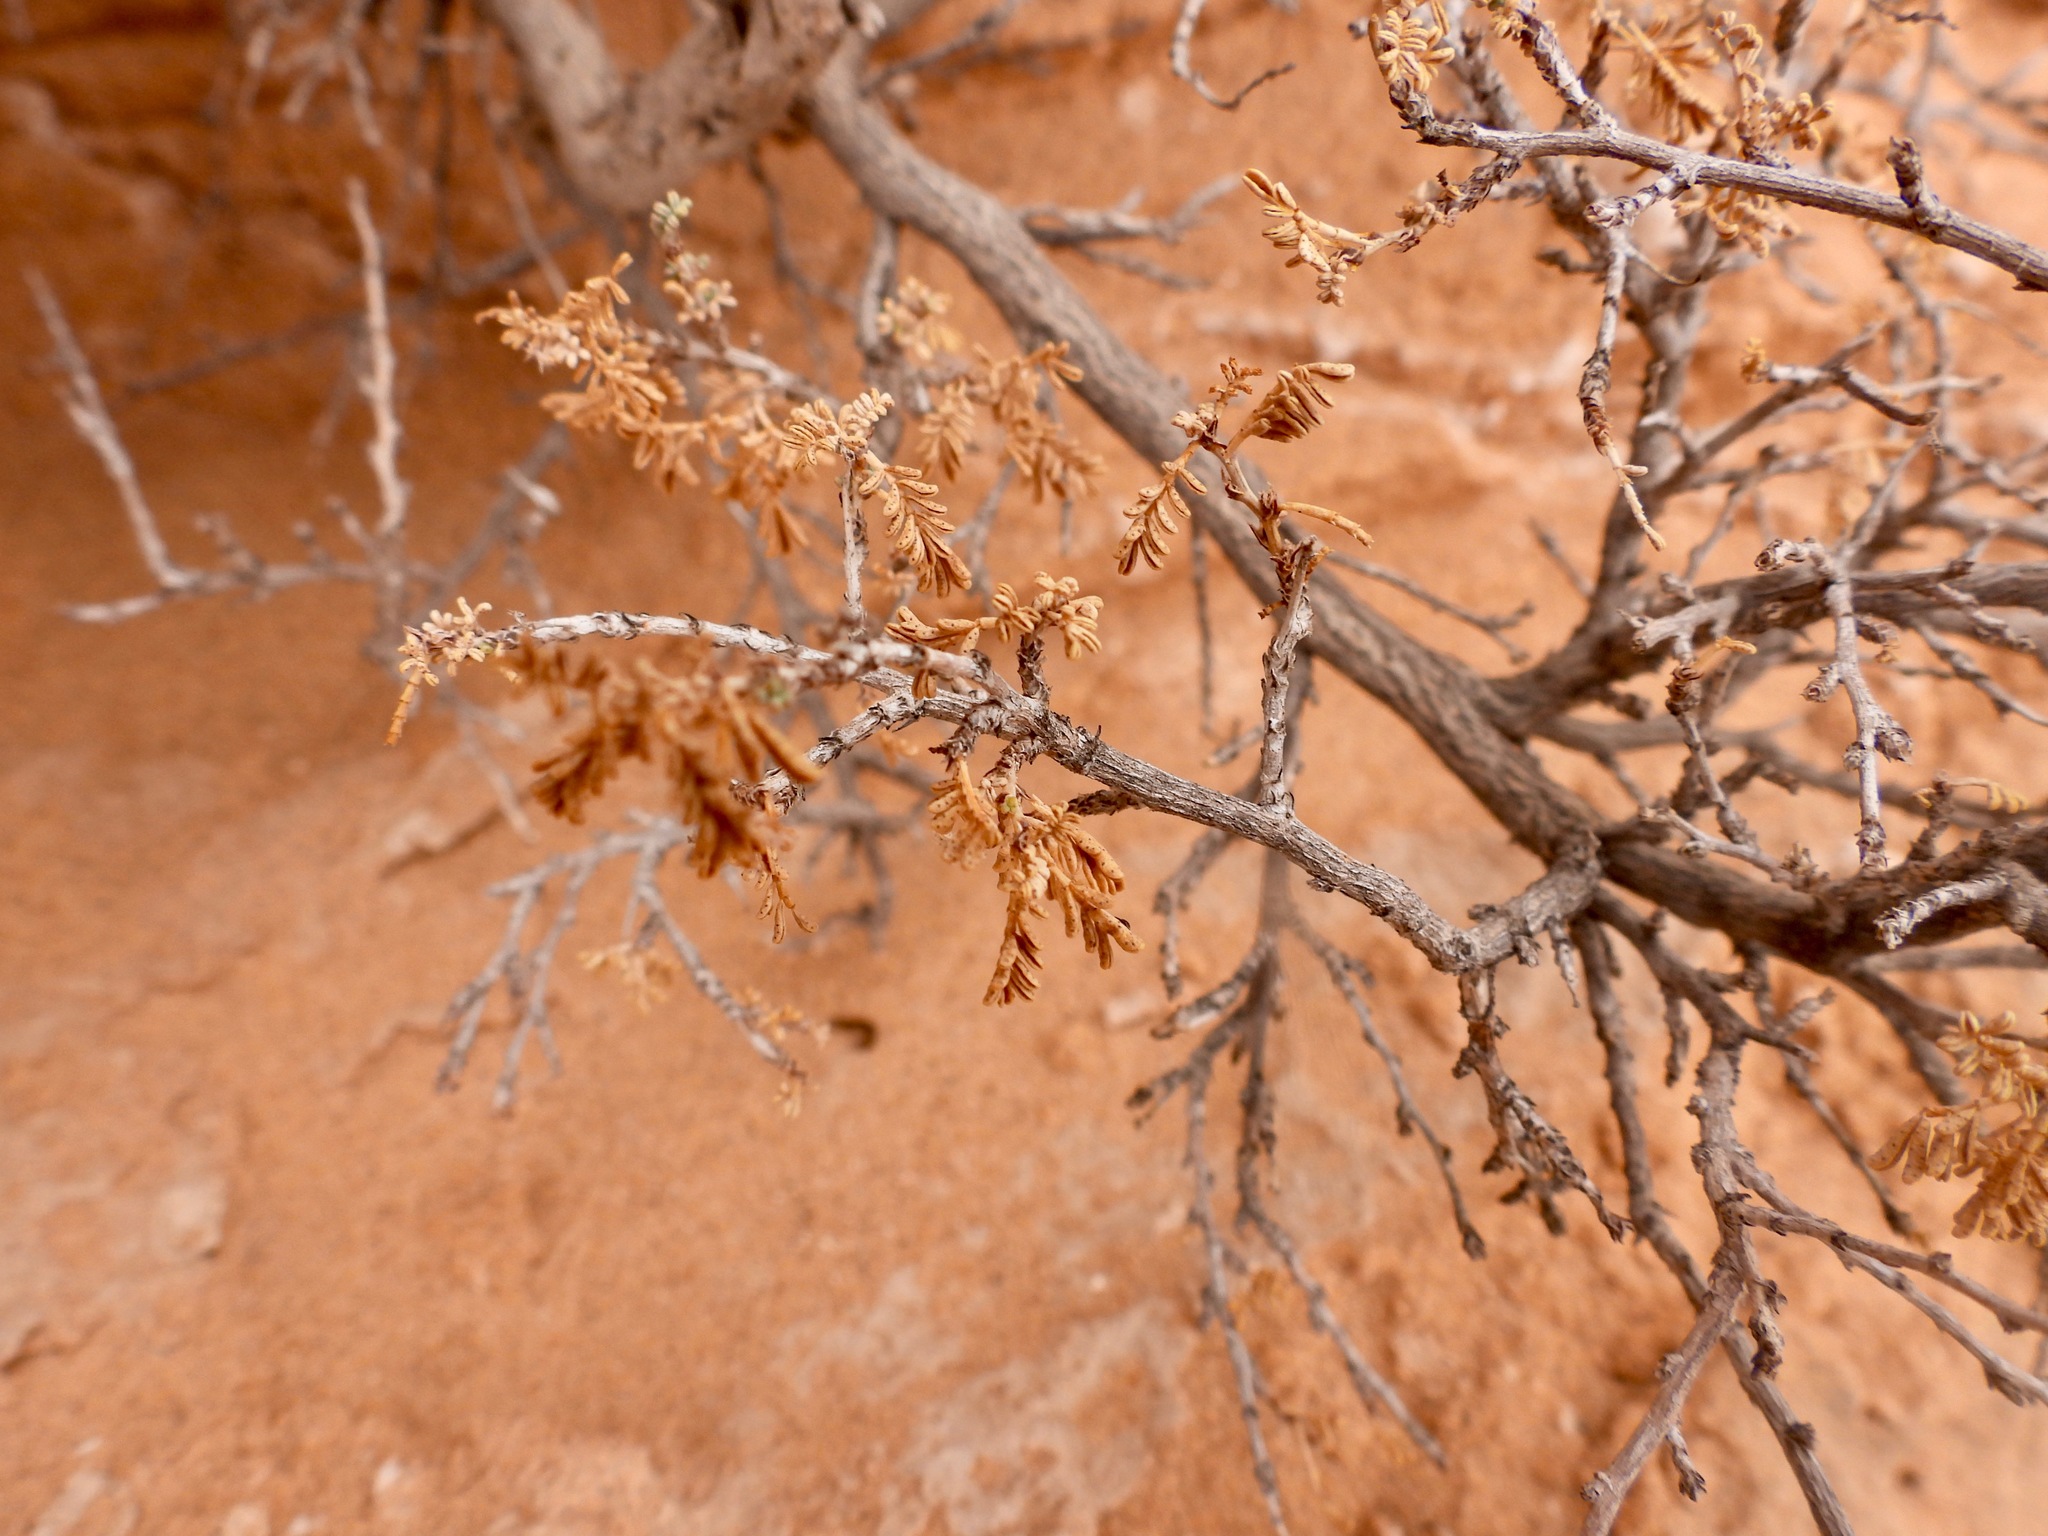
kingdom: Plantae
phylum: Tracheophyta
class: Magnoliopsida
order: Fabales
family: Fabaceae
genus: Dalea
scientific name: Dalea formosa
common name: Feather-plume dalea
